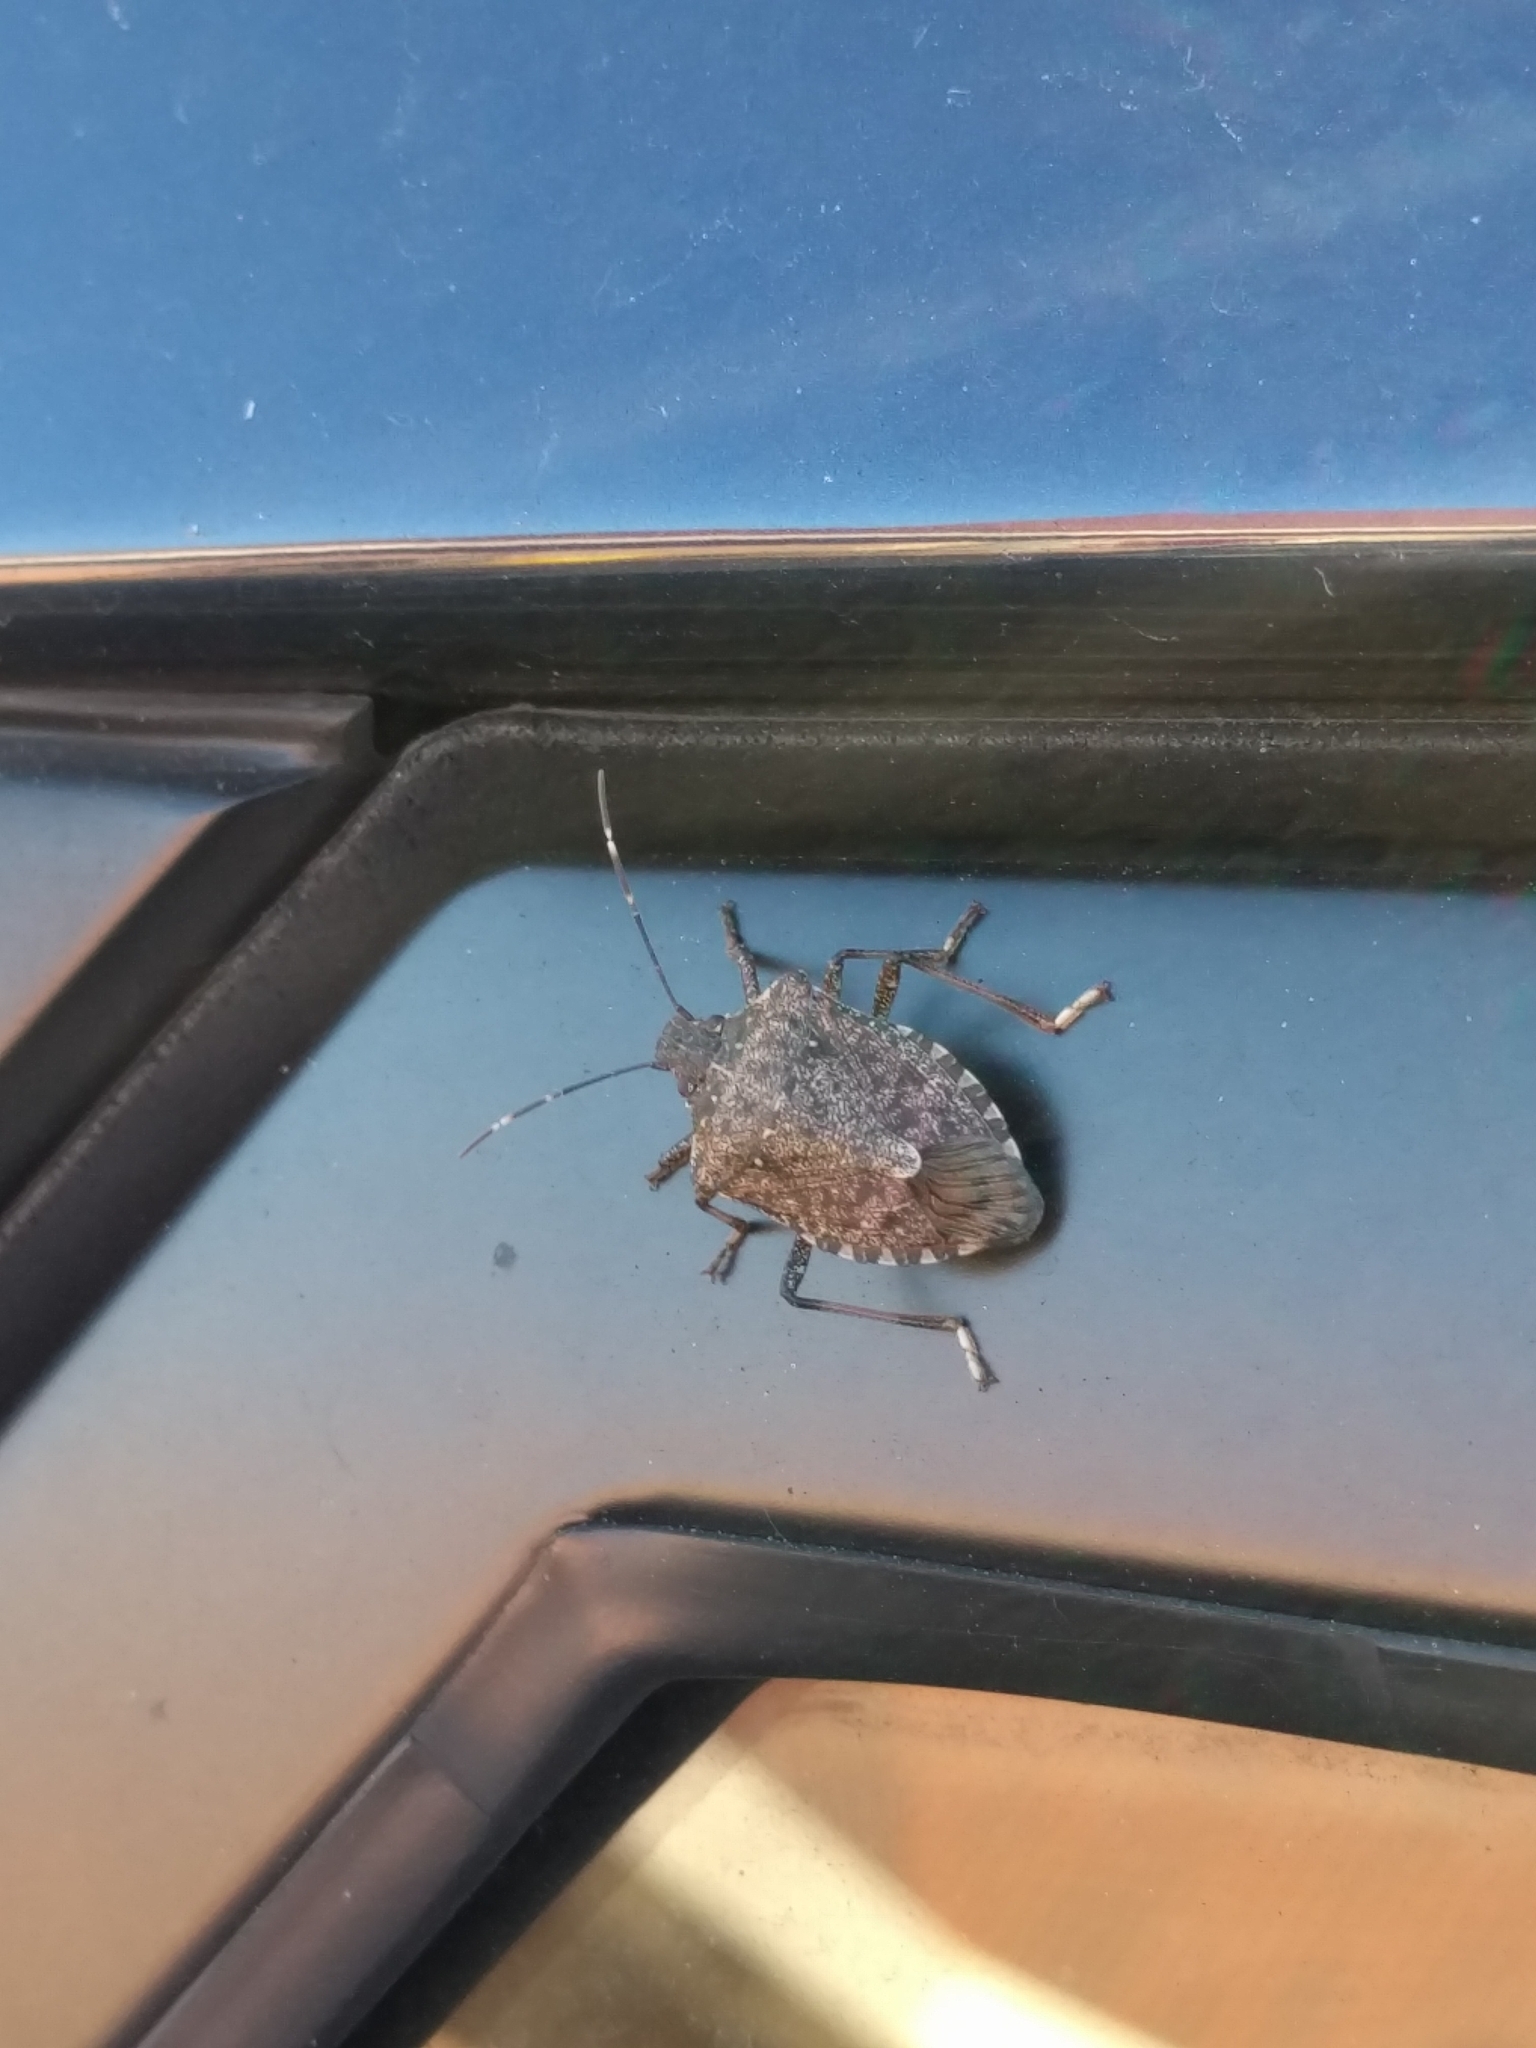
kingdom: Animalia
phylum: Arthropoda
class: Insecta
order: Hemiptera
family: Pentatomidae
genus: Halyomorpha
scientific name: Halyomorpha halys
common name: Brown marmorated stink bug
